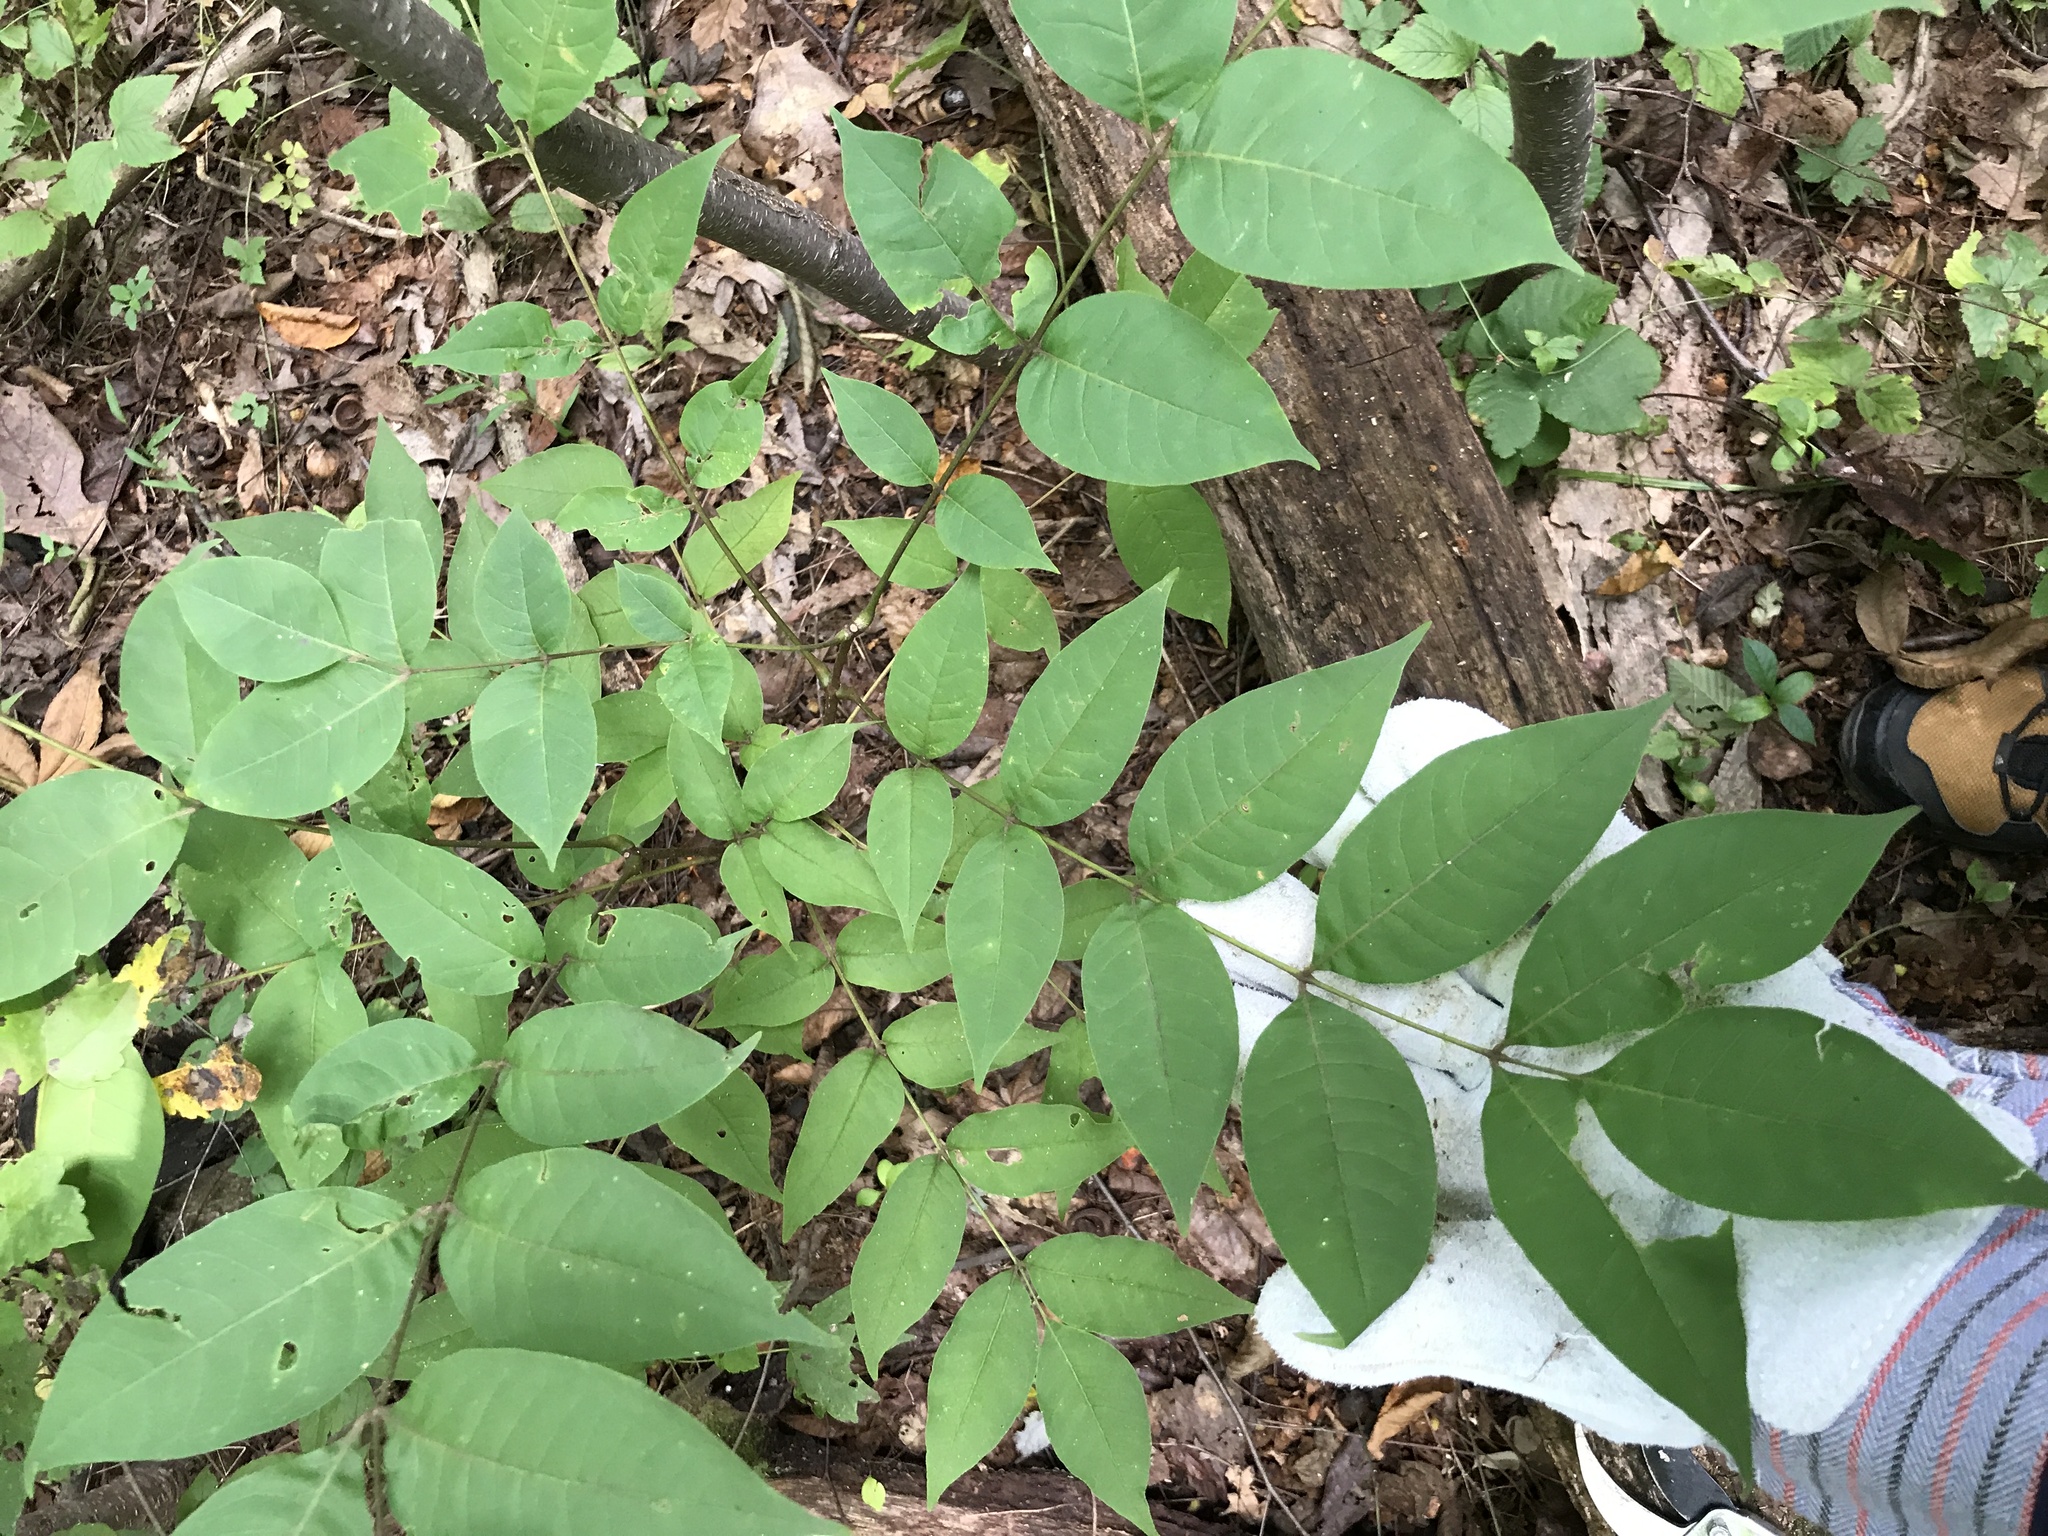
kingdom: Plantae
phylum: Tracheophyta
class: Magnoliopsida
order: Sapindales
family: Rutaceae
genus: Phellodendron
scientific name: Phellodendron amurense
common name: Amur corktree
